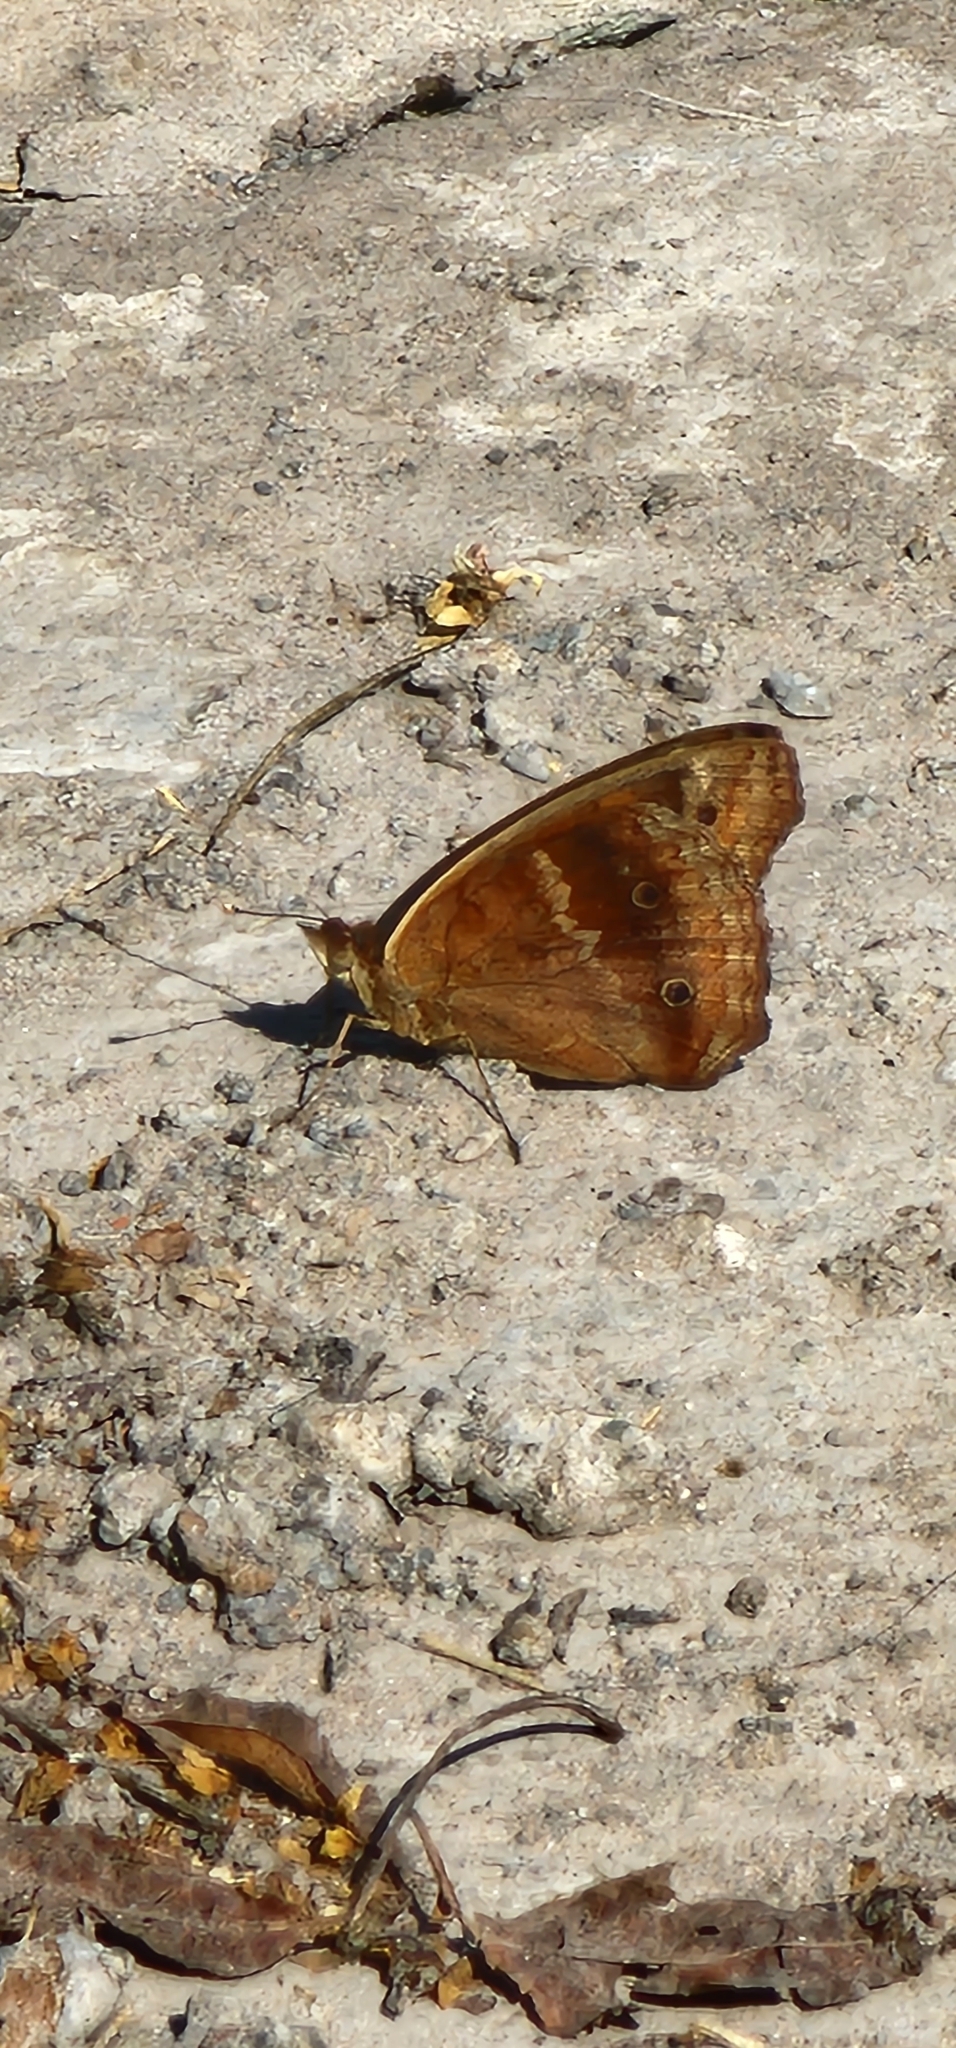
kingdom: Animalia
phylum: Arthropoda
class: Insecta
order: Lepidoptera
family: Nymphalidae
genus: Junonia
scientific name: Junonia lavinia
